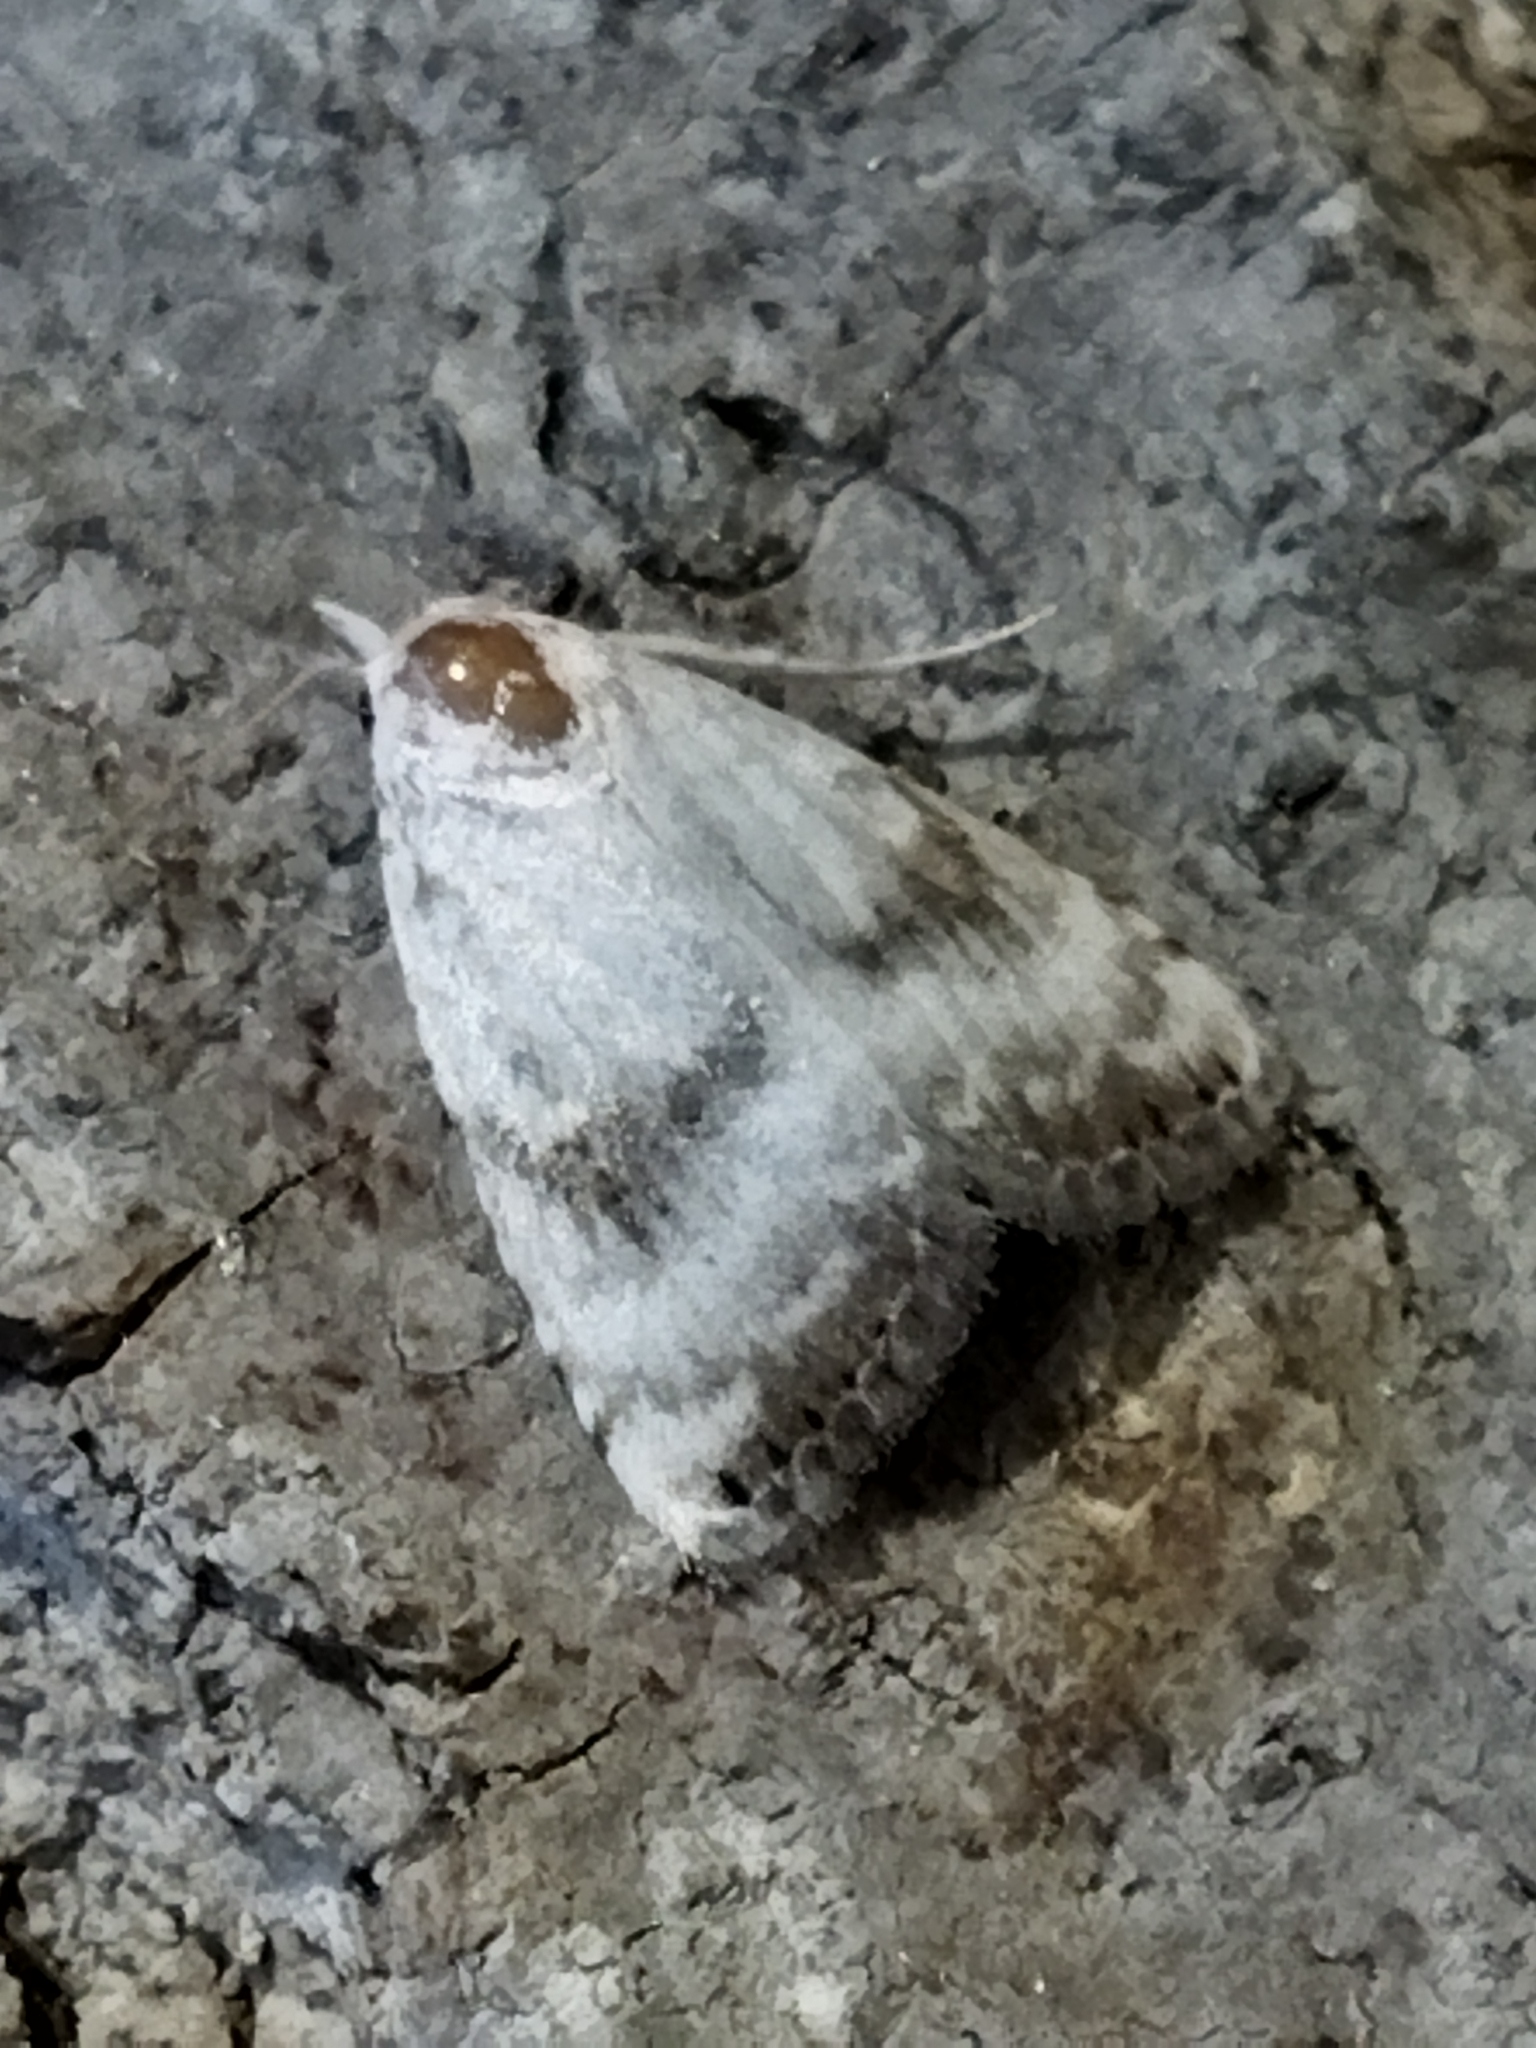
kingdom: Animalia
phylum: Arthropoda
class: Insecta
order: Lepidoptera
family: Nolidae
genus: Meganola
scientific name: Meganola albula
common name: Kent black arches
